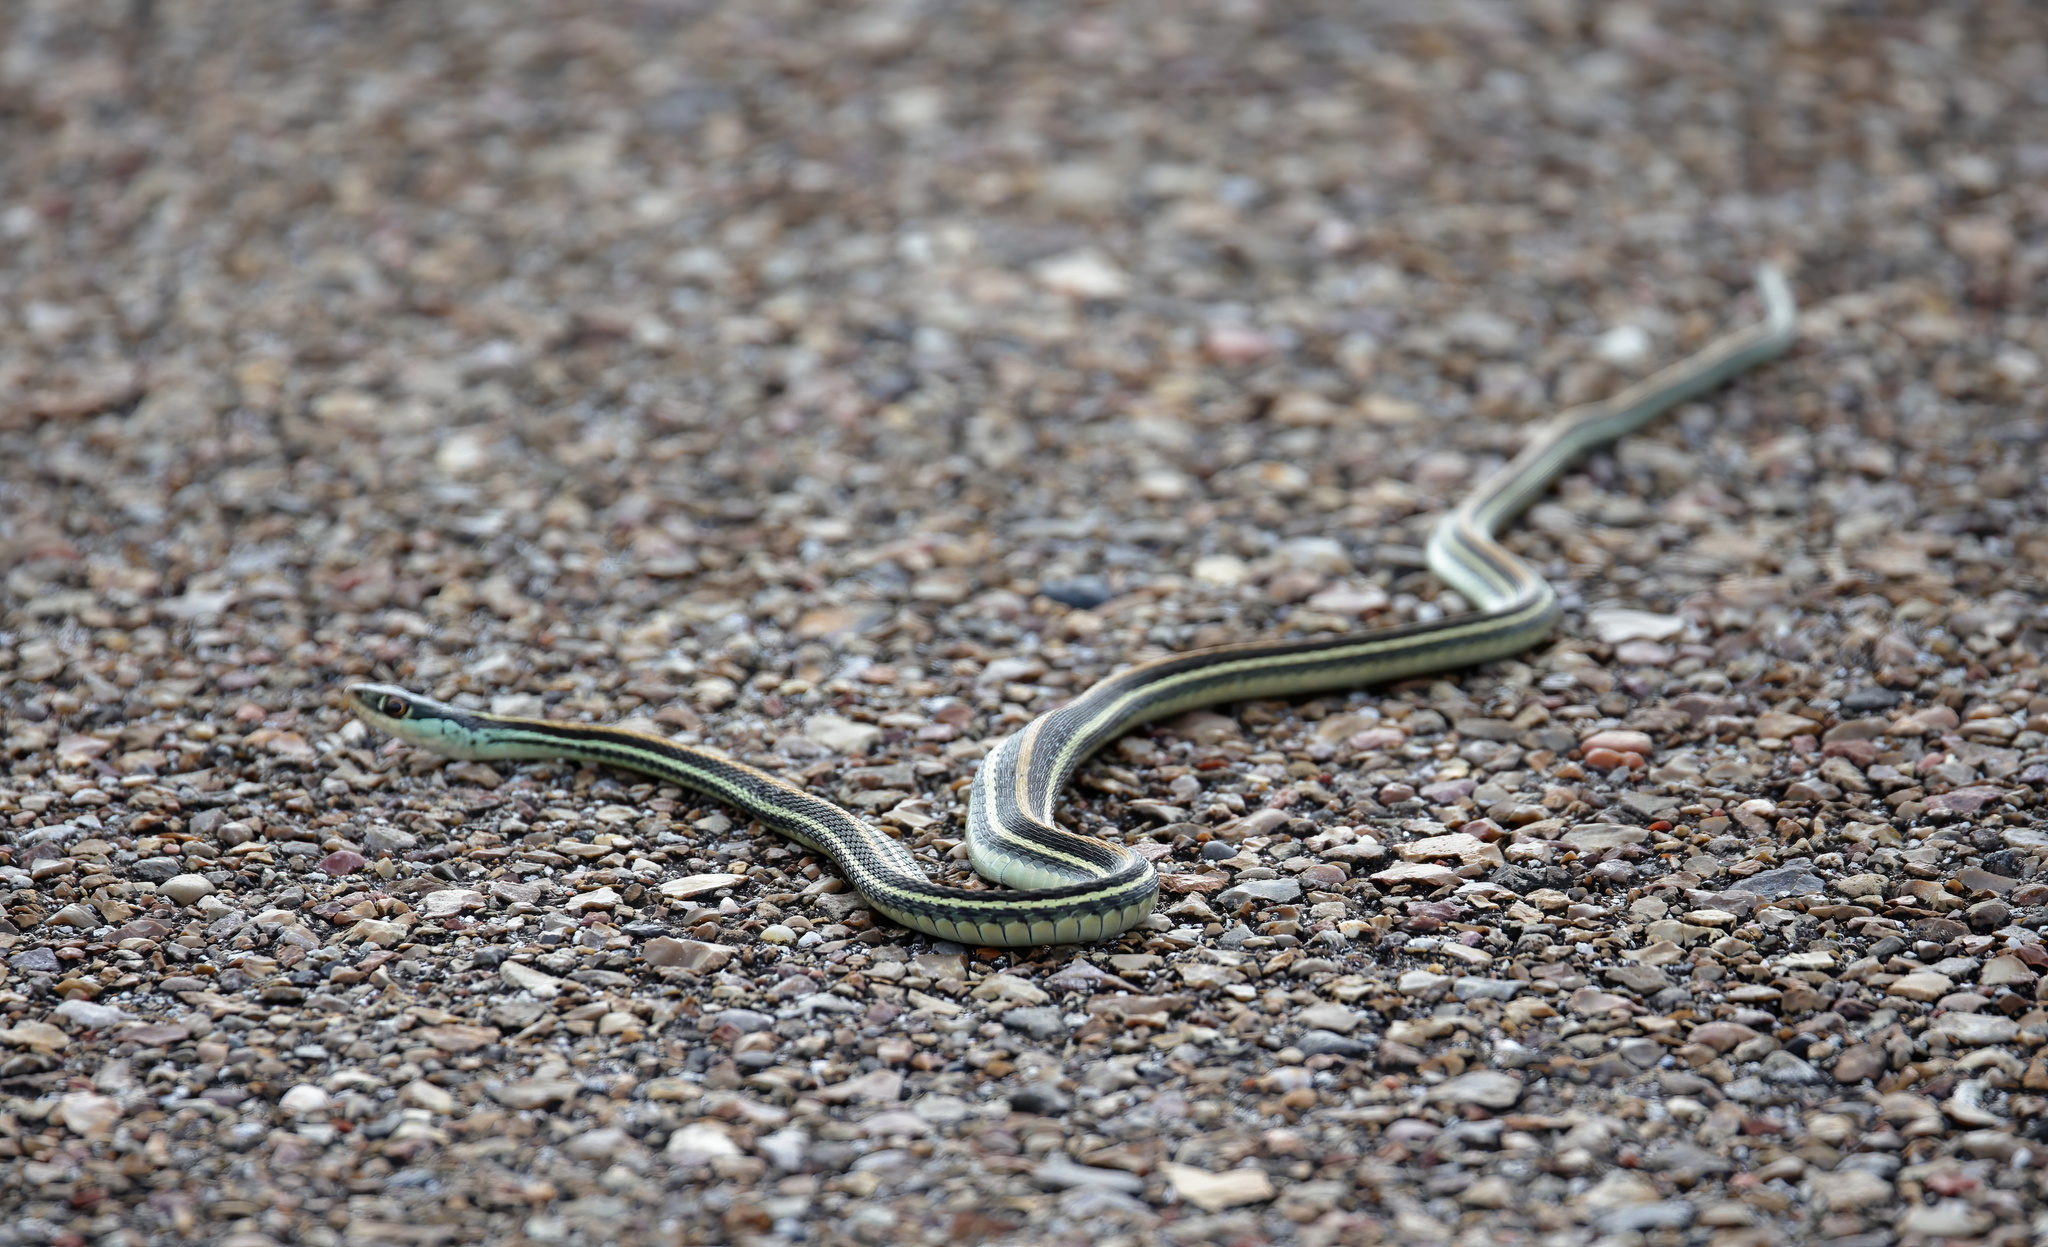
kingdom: Animalia
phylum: Chordata
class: Squamata
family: Colubridae
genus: Thamnophis
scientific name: Thamnophis proximus
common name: Western ribbon snake
